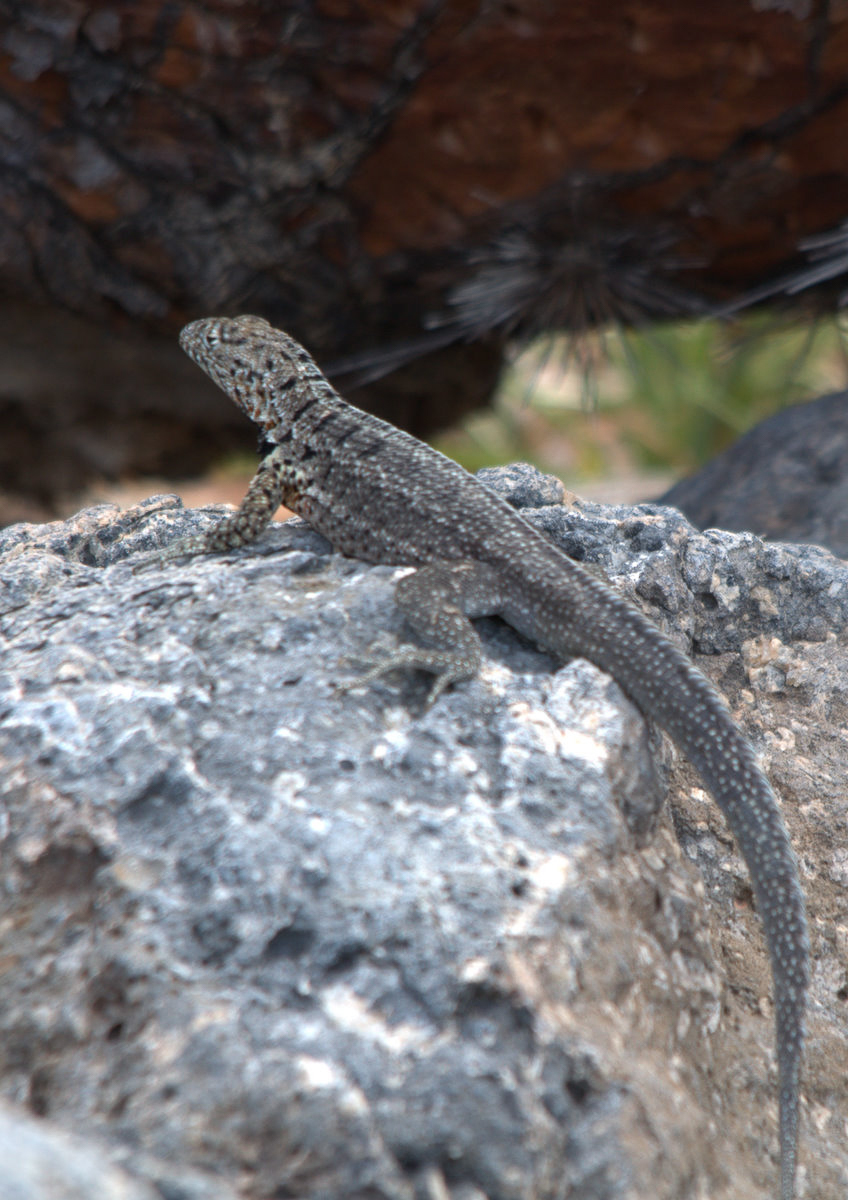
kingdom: Animalia
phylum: Chordata
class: Squamata
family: Tropiduridae
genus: Microlophus
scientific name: Microlophus indefatigabilis
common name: Galapagos lava lizard
